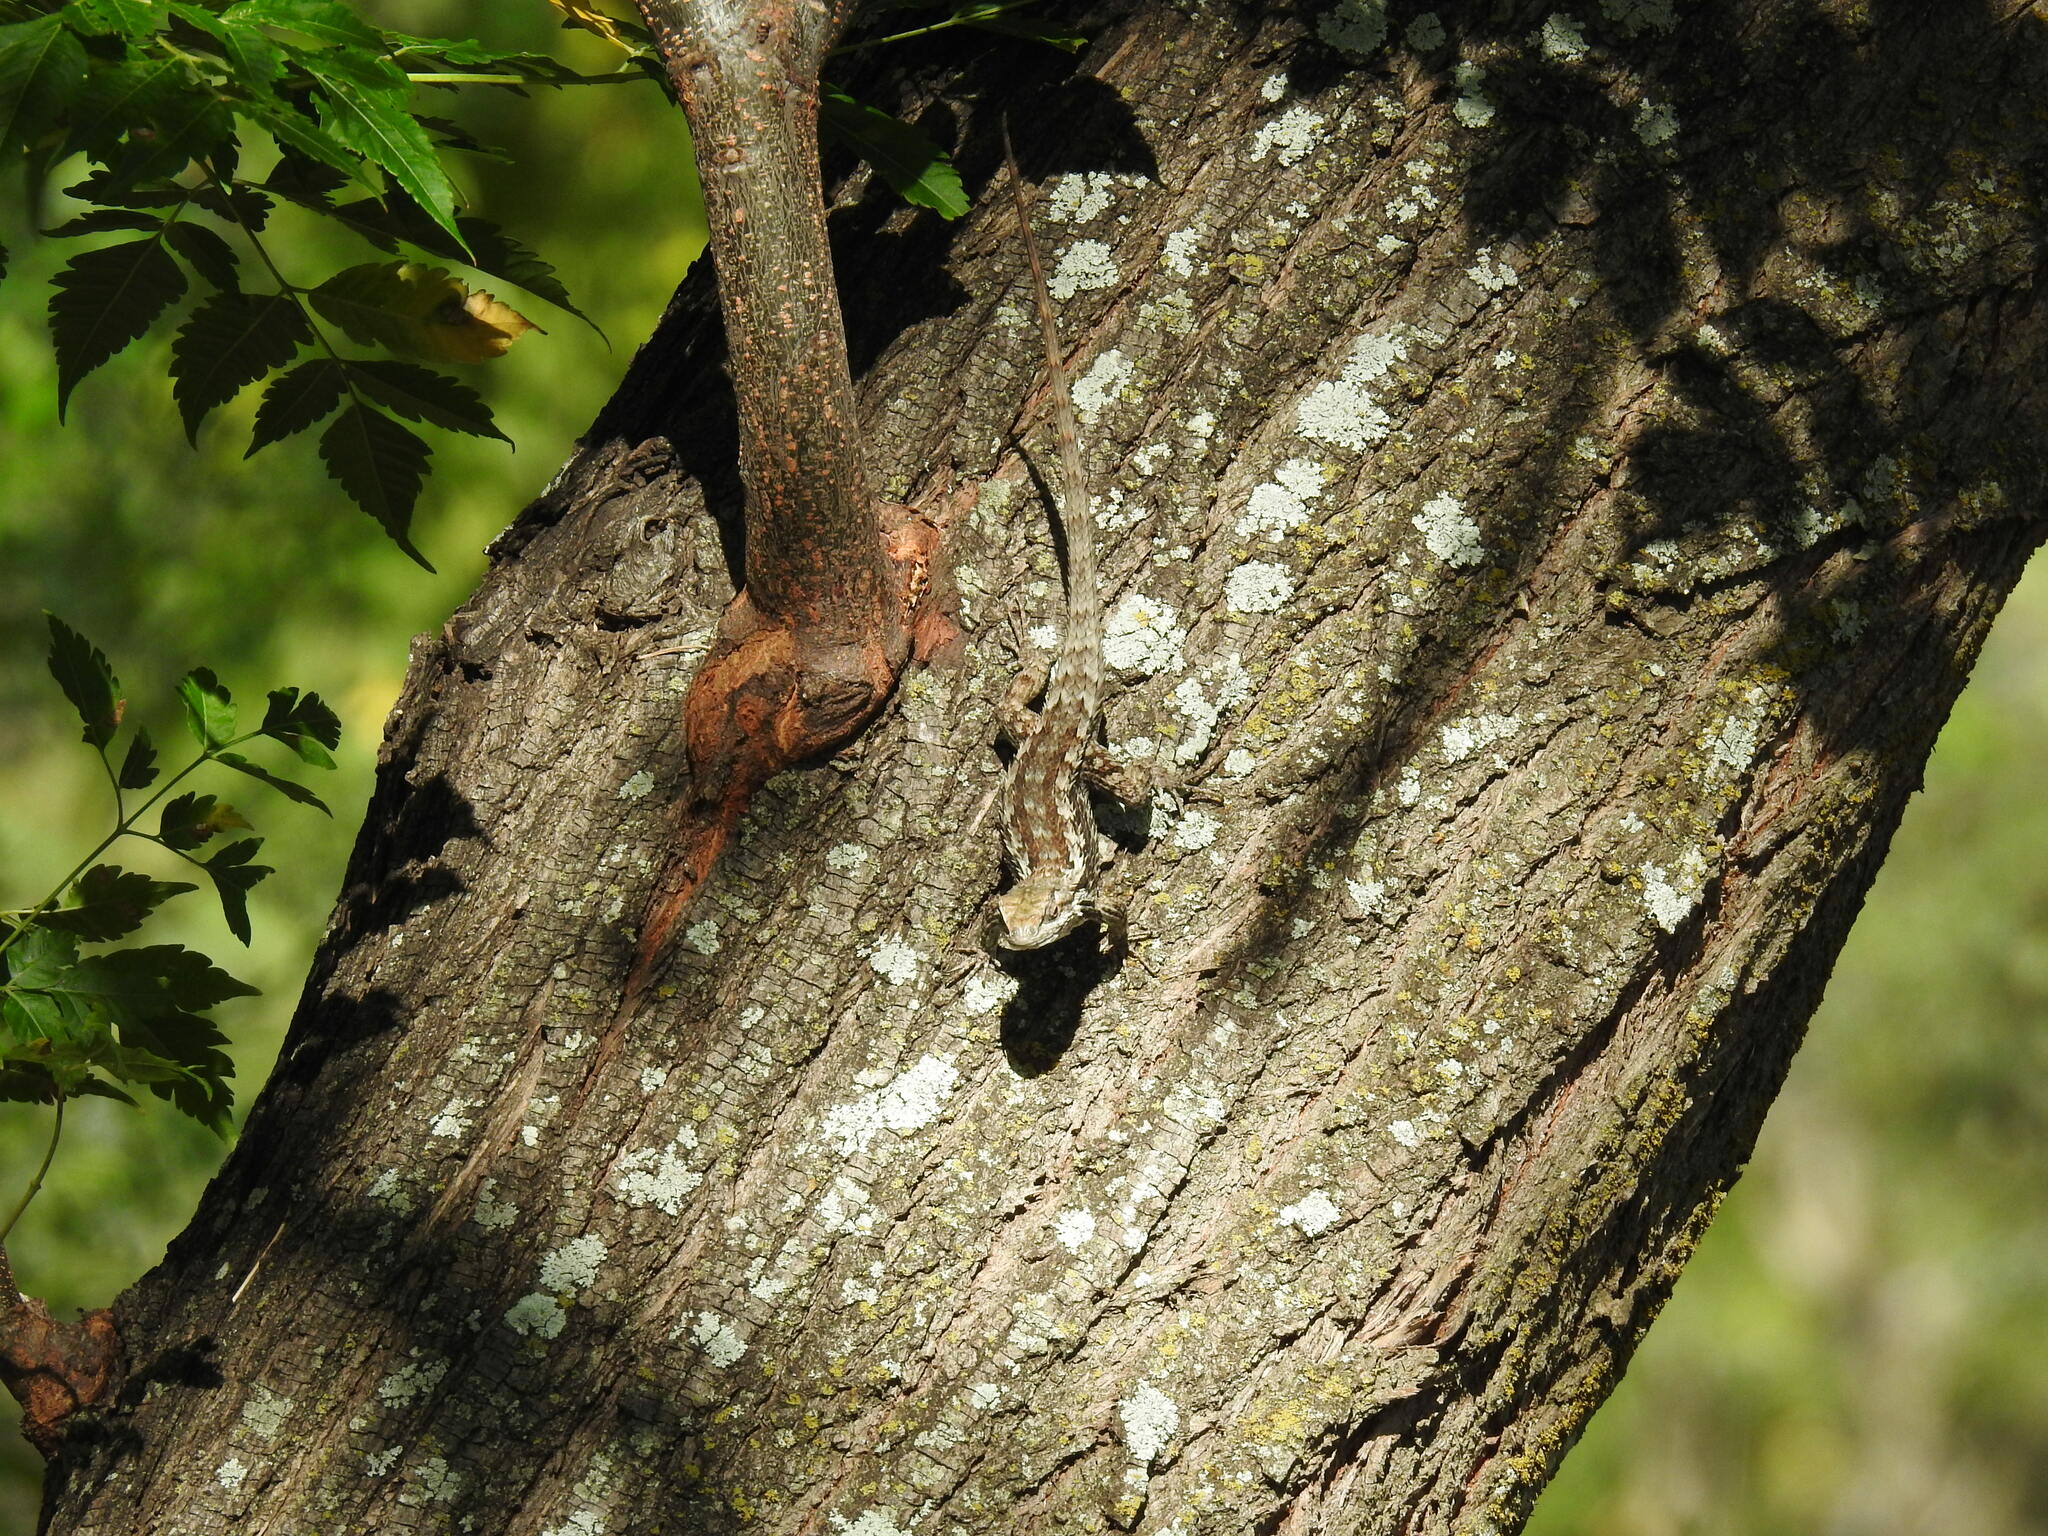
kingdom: Animalia
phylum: Chordata
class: Squamata
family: Phrynosomatidae
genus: Sceloporus
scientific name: Sceloporus olivaceus
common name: Texas spiny lizard
